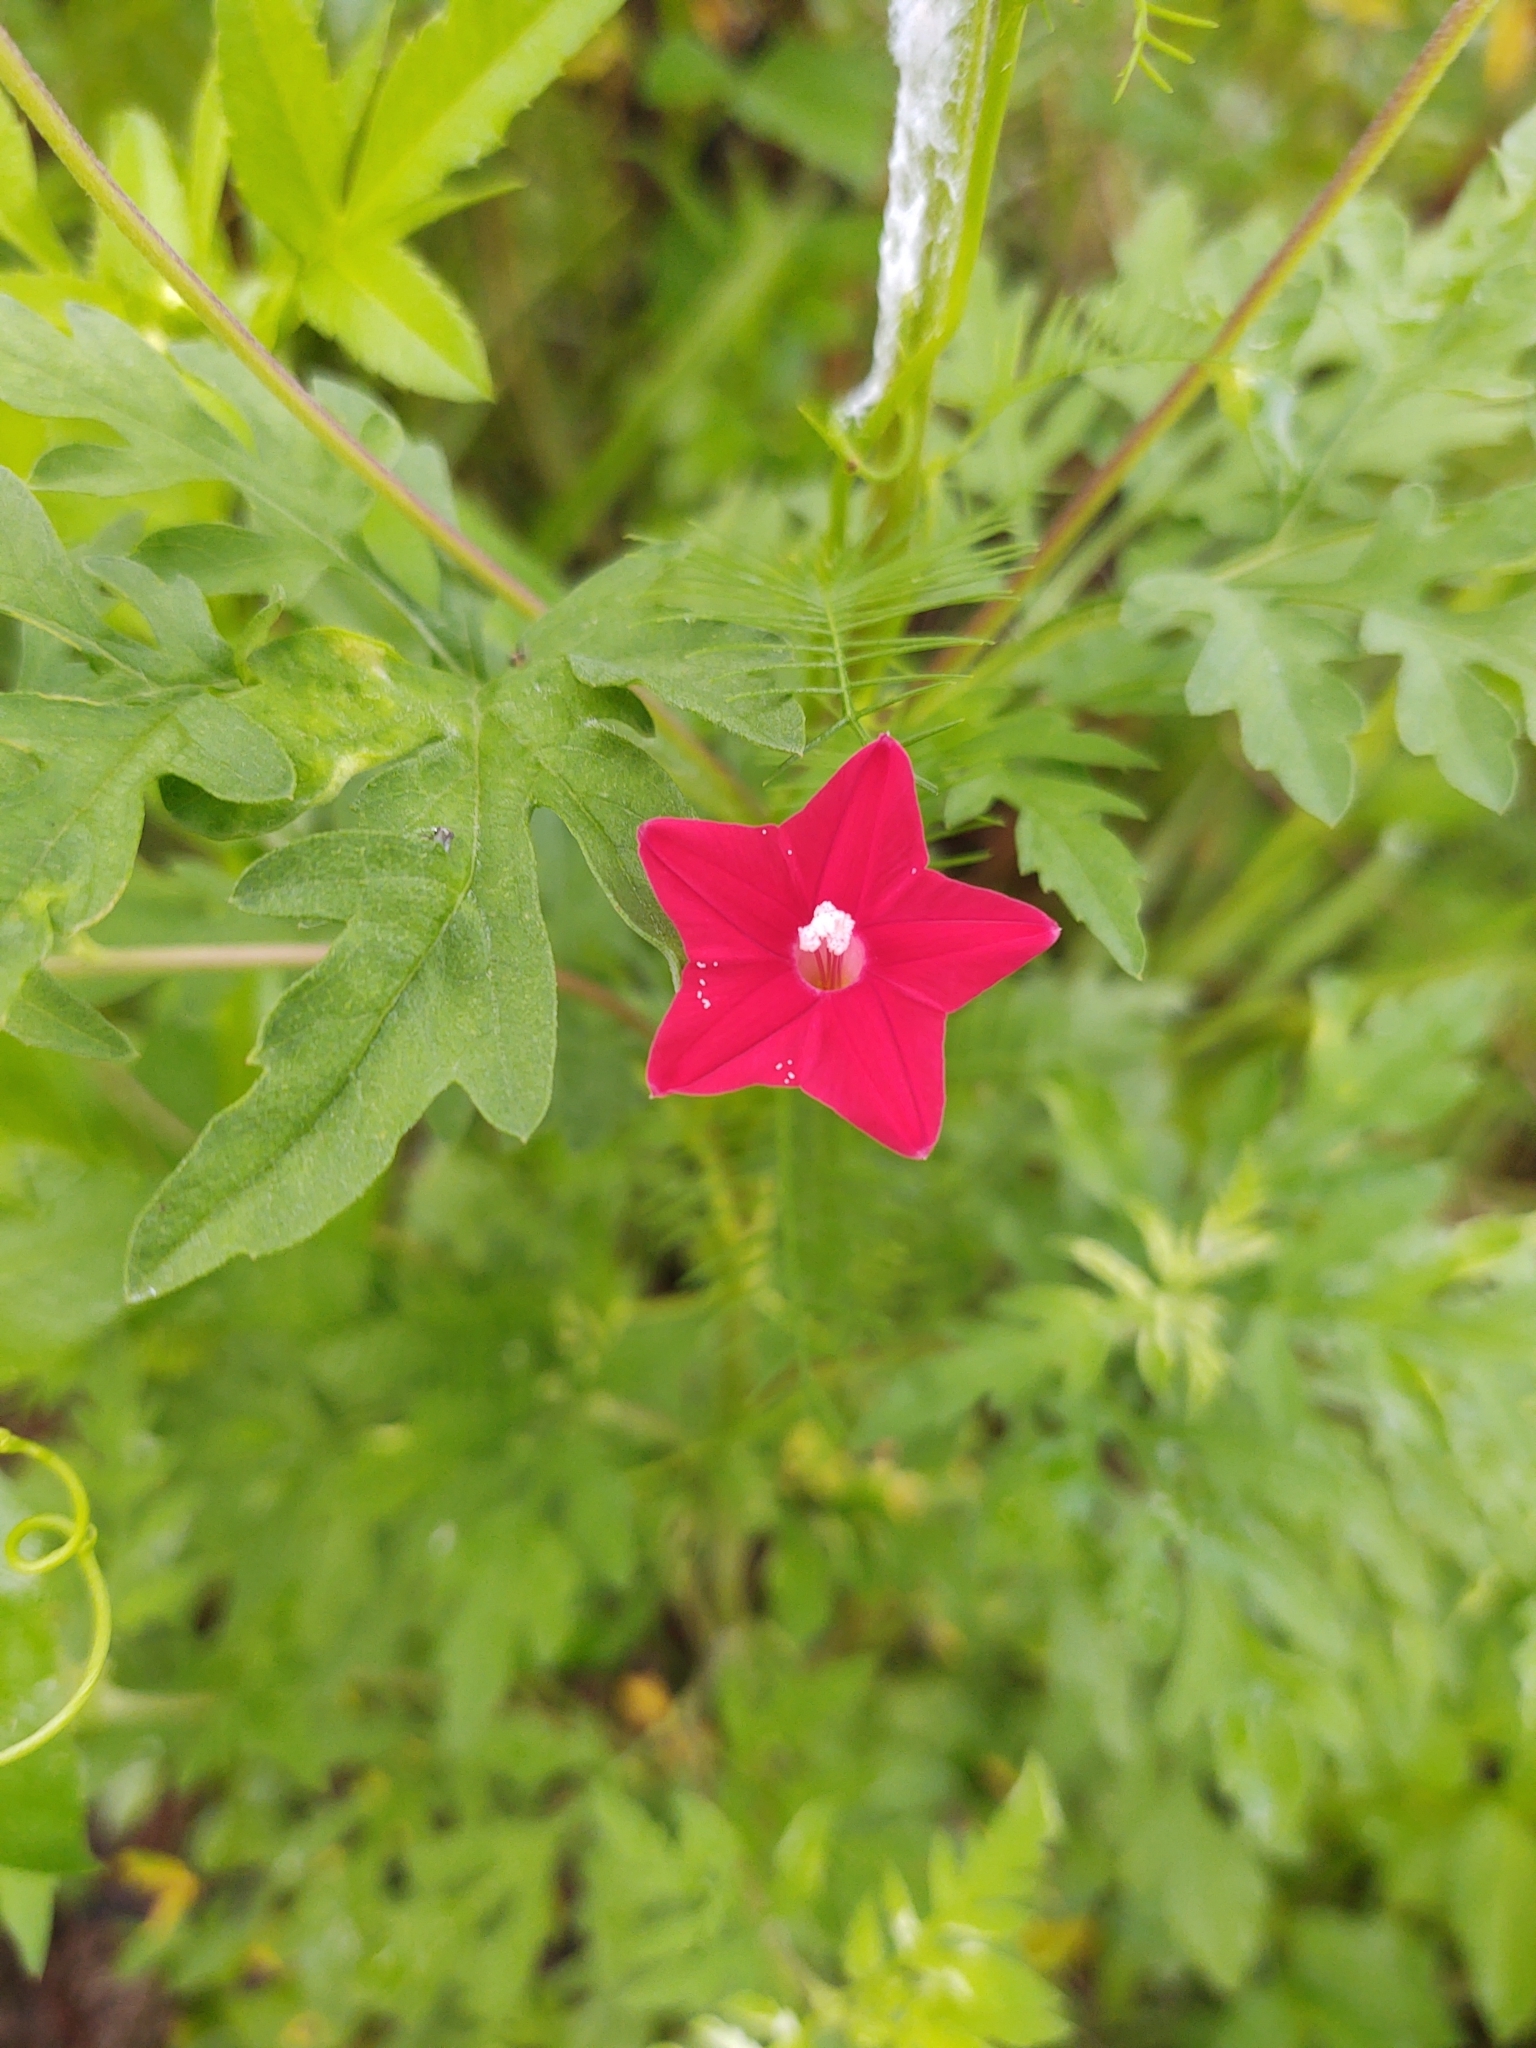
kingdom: Plantae
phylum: Tracheophyta
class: Magnoliopsida
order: Solanales
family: Convolvulaceae
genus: Ipomoea
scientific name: Ipomoea quamoclit
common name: Cypress vine
